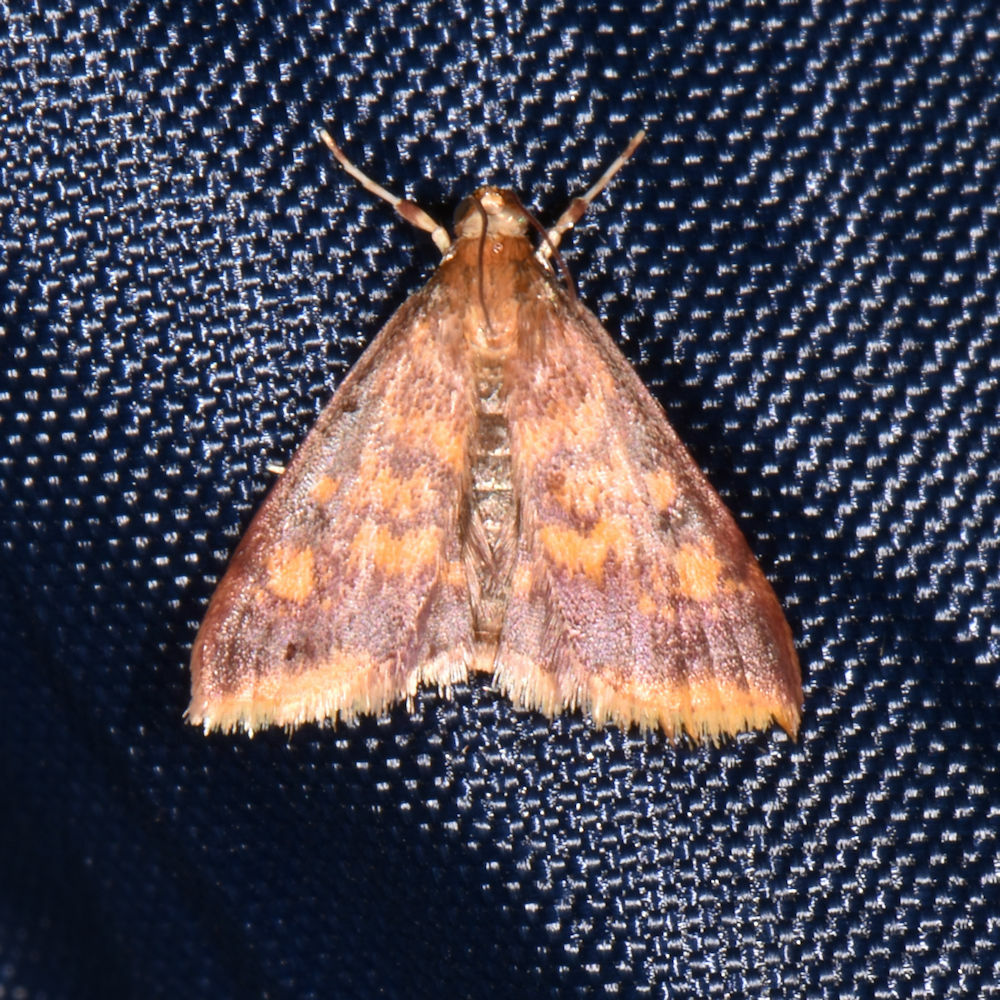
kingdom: Animalia
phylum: Arthropoda
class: Insecta
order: Lepidoptera
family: Crambidae
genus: Pyrausta
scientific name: Pyrausta acrionalis
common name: Mint-loving pyrausta moth
